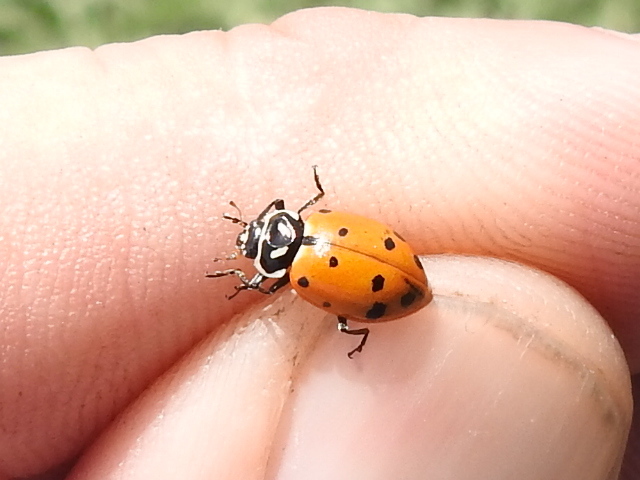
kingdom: Animalia
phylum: Arthropoda
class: Insecta
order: Coleoptera
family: Coccinellidae
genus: Hippodamia
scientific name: Hippodamia convergens
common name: Convergent lady beetle
